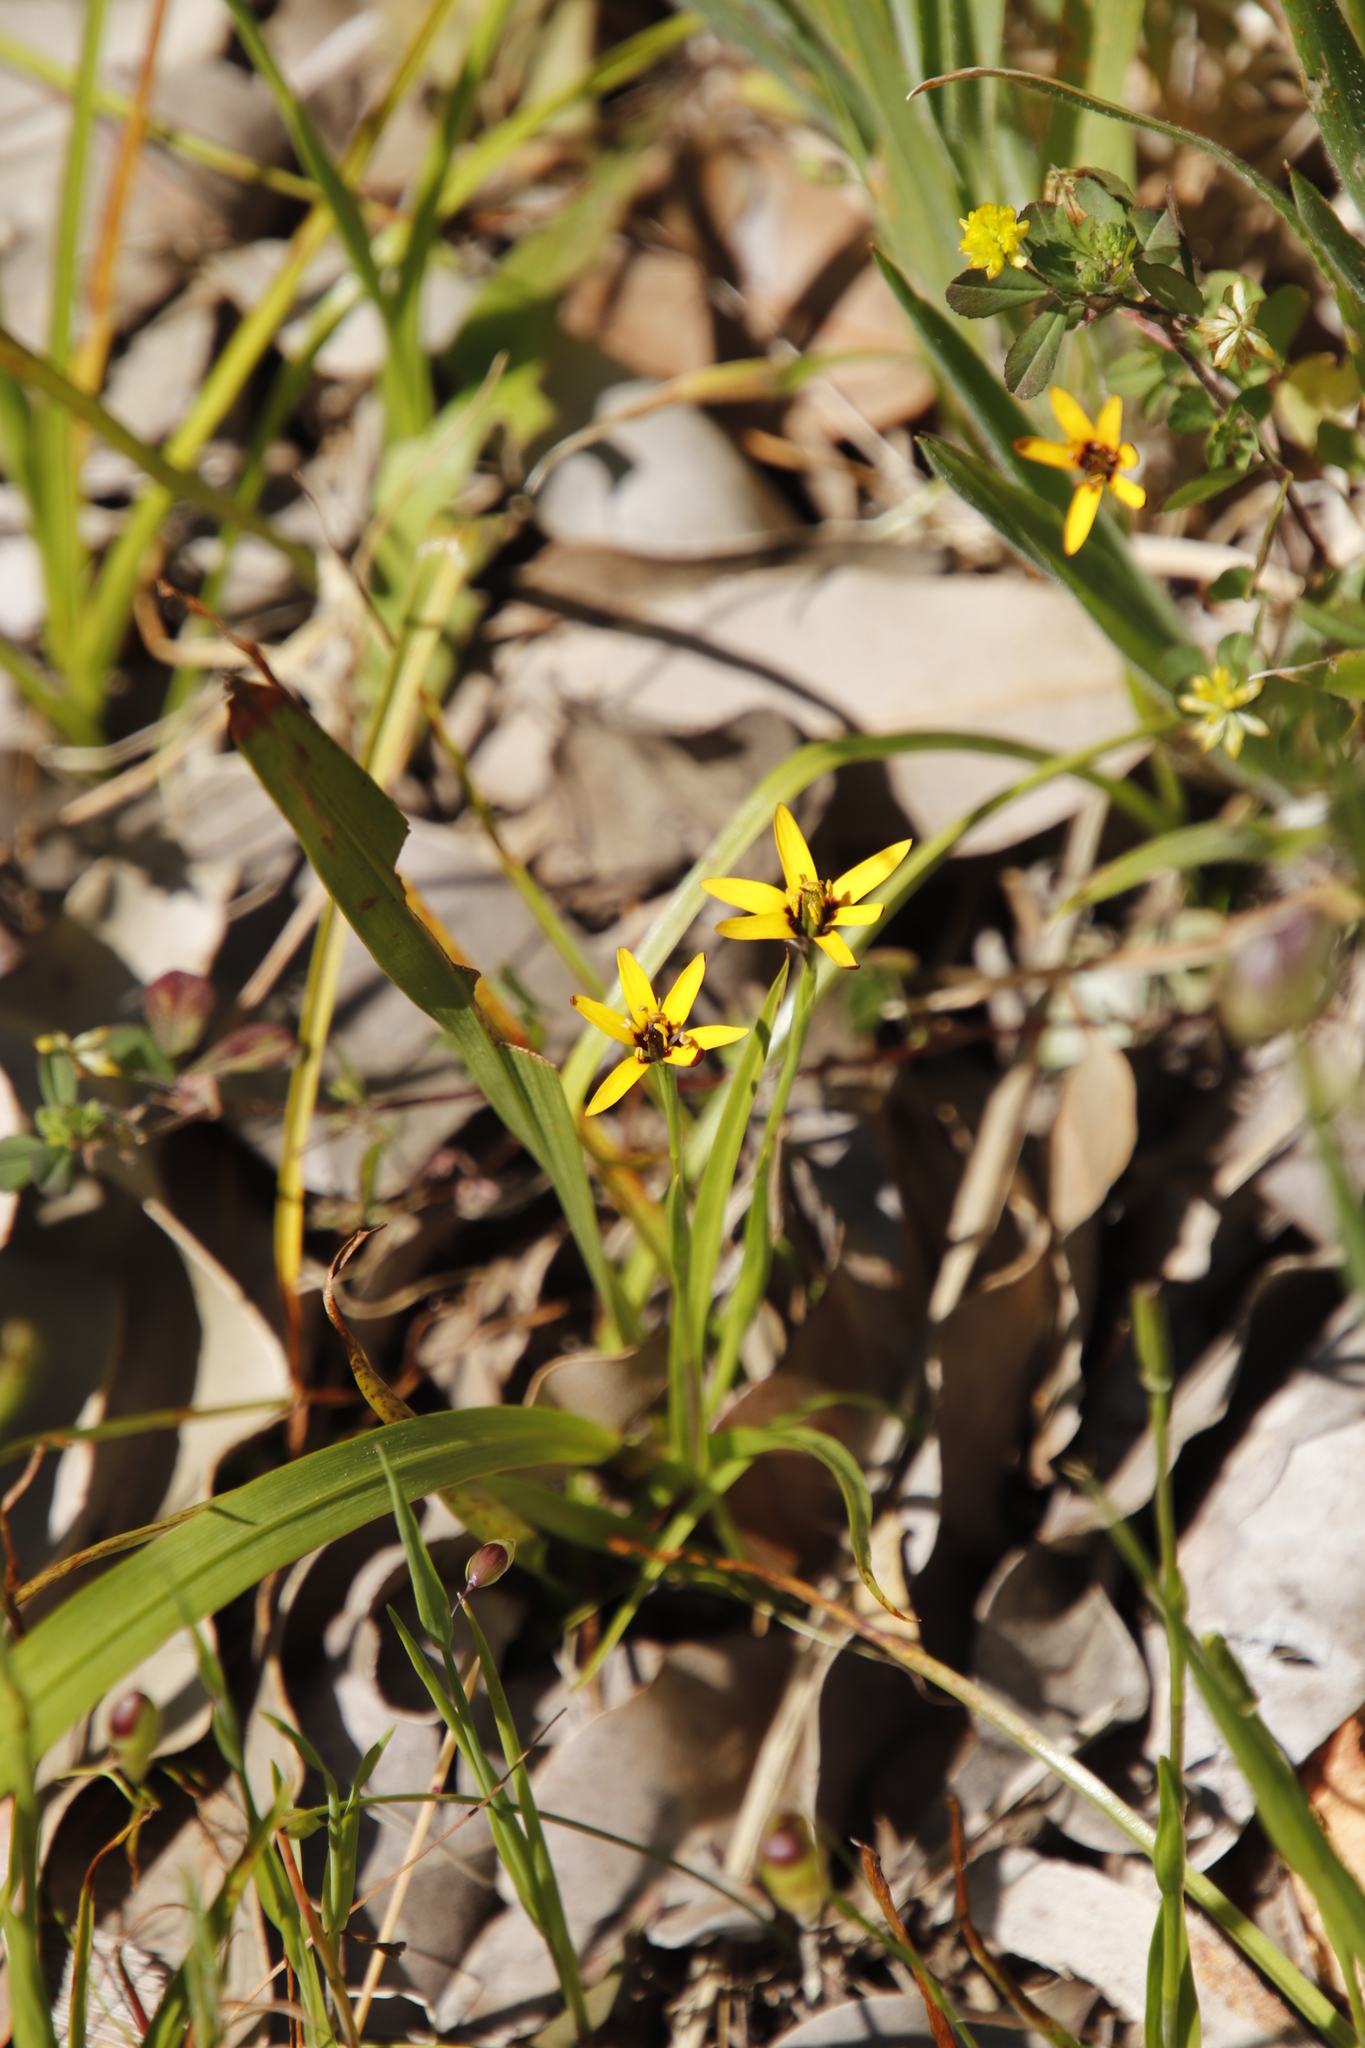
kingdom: Plantae
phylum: Tracheophyta
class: Liliopsida
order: Liliales
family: Colchicaceae
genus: Baeometra
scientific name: Baeometra uniflora
